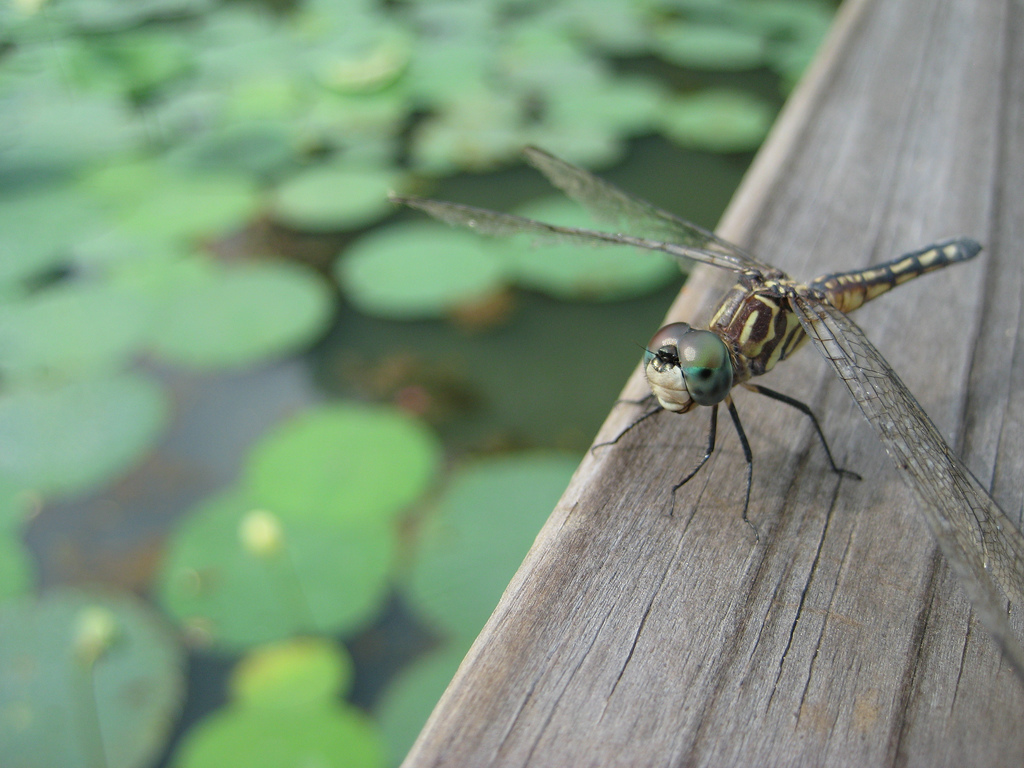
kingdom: Animalia
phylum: Arthropoda
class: Insecta
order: Odonata
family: Libellulidae
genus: Pachydiplax
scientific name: Pachydiplax longipennis
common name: Blue dasher
